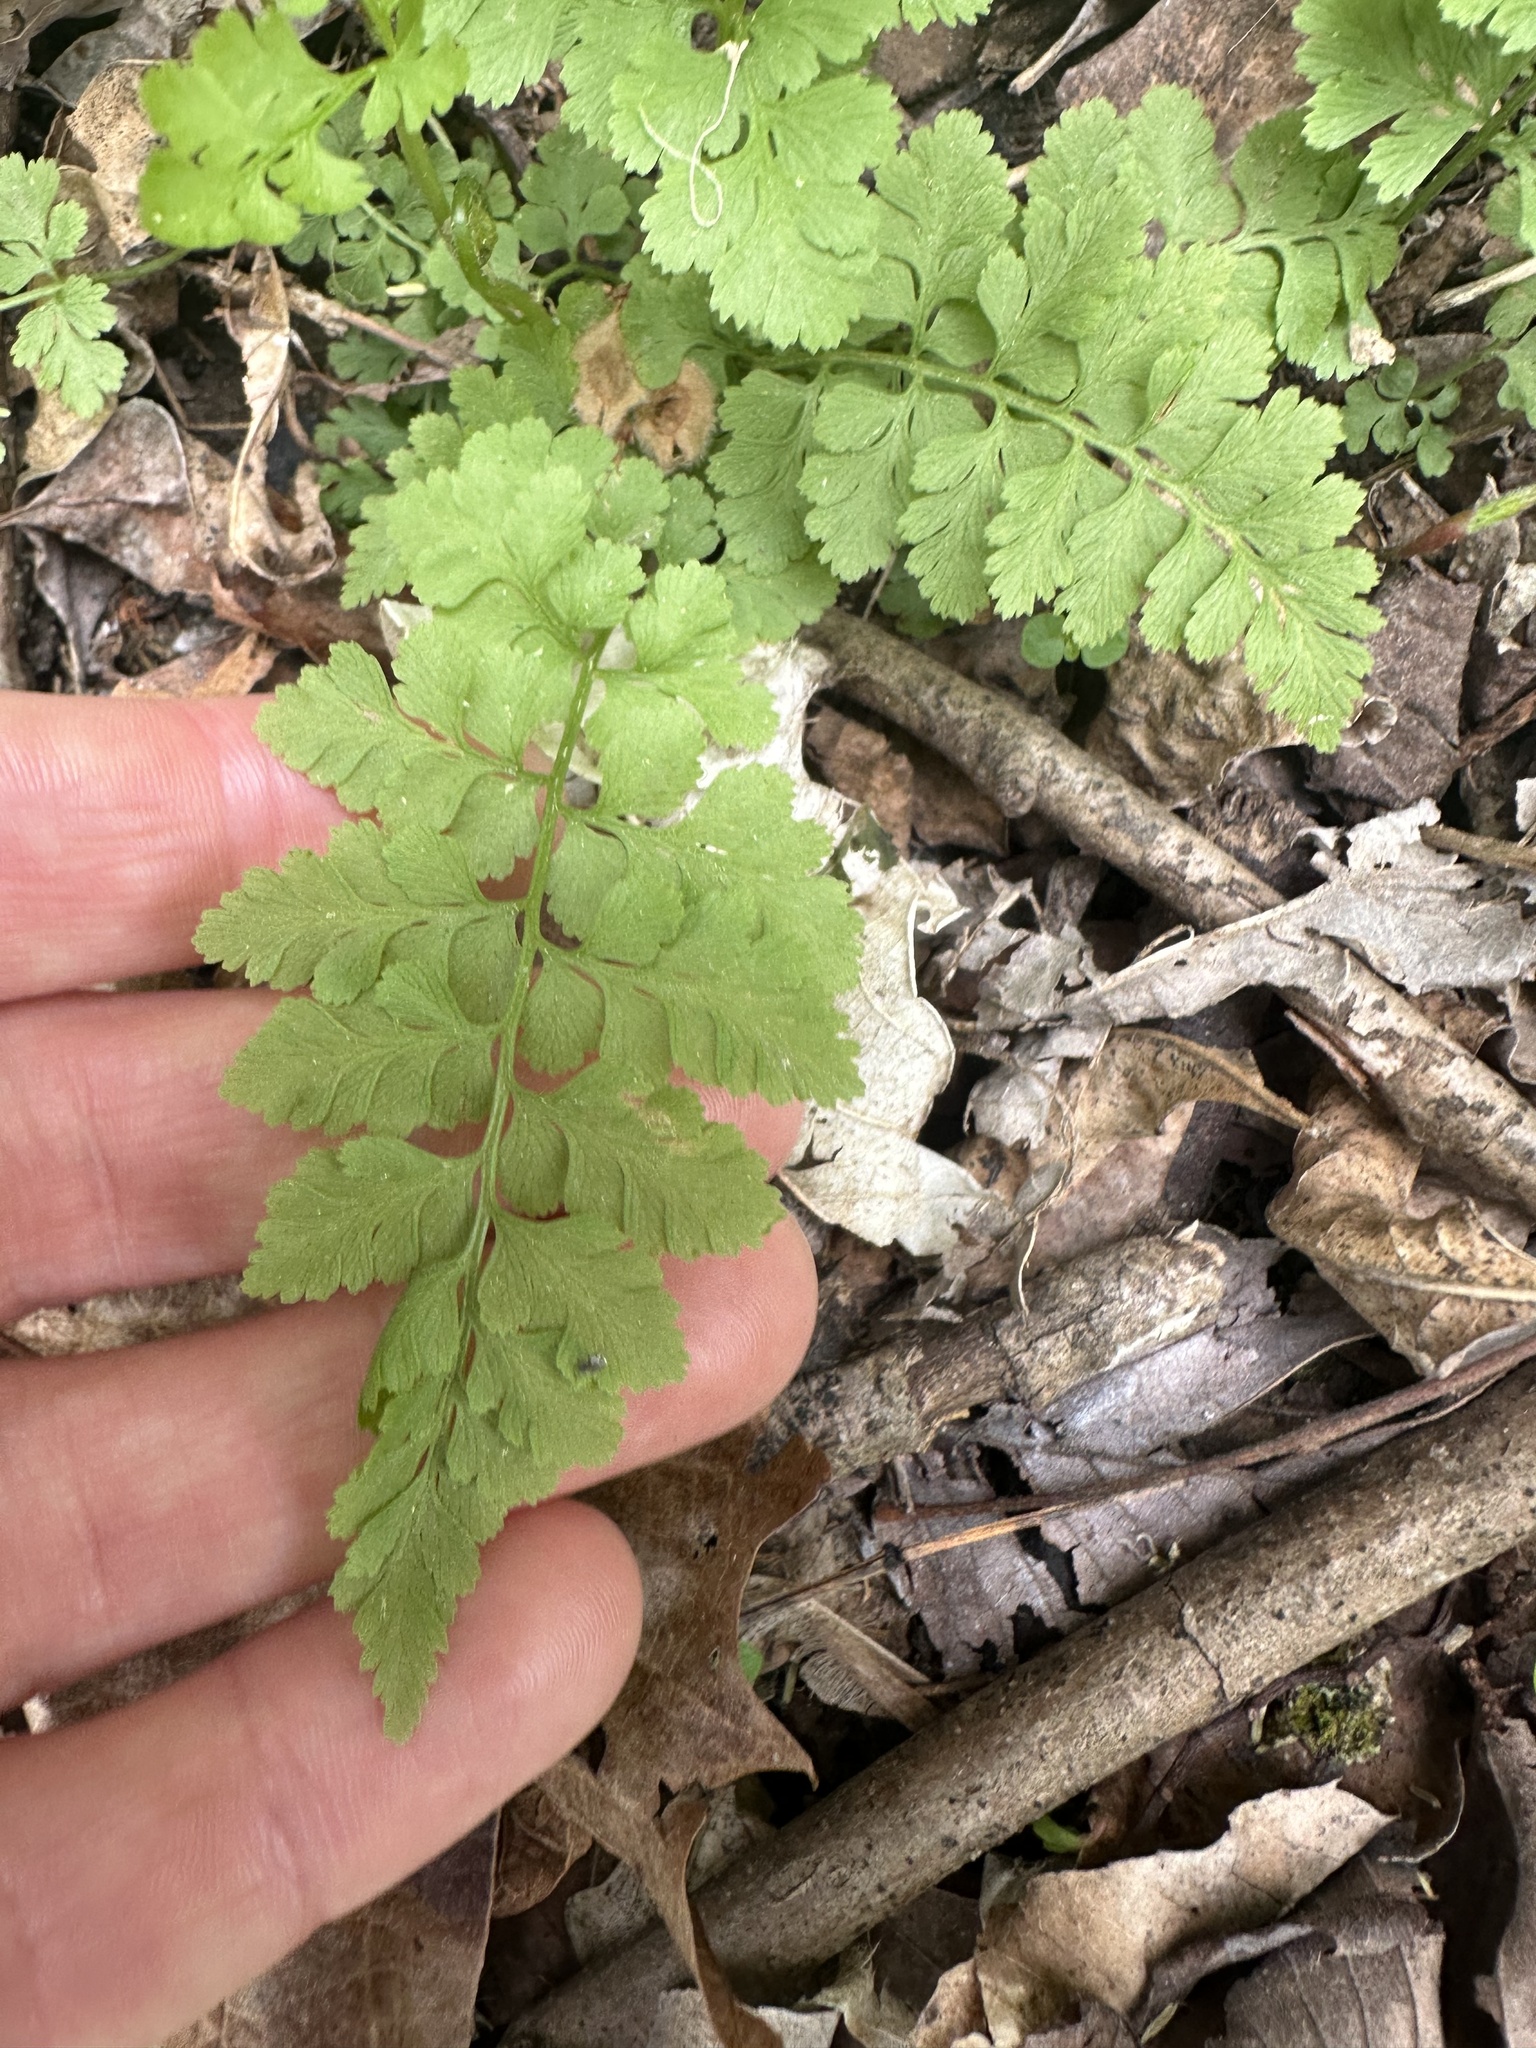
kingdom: Plantae
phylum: Tracheophyta
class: Polypodiopsida
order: Polypodiales
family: Cystopteridaceae
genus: Cystopteris
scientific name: Cystopteris protrusa
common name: Lowland brittle fern
